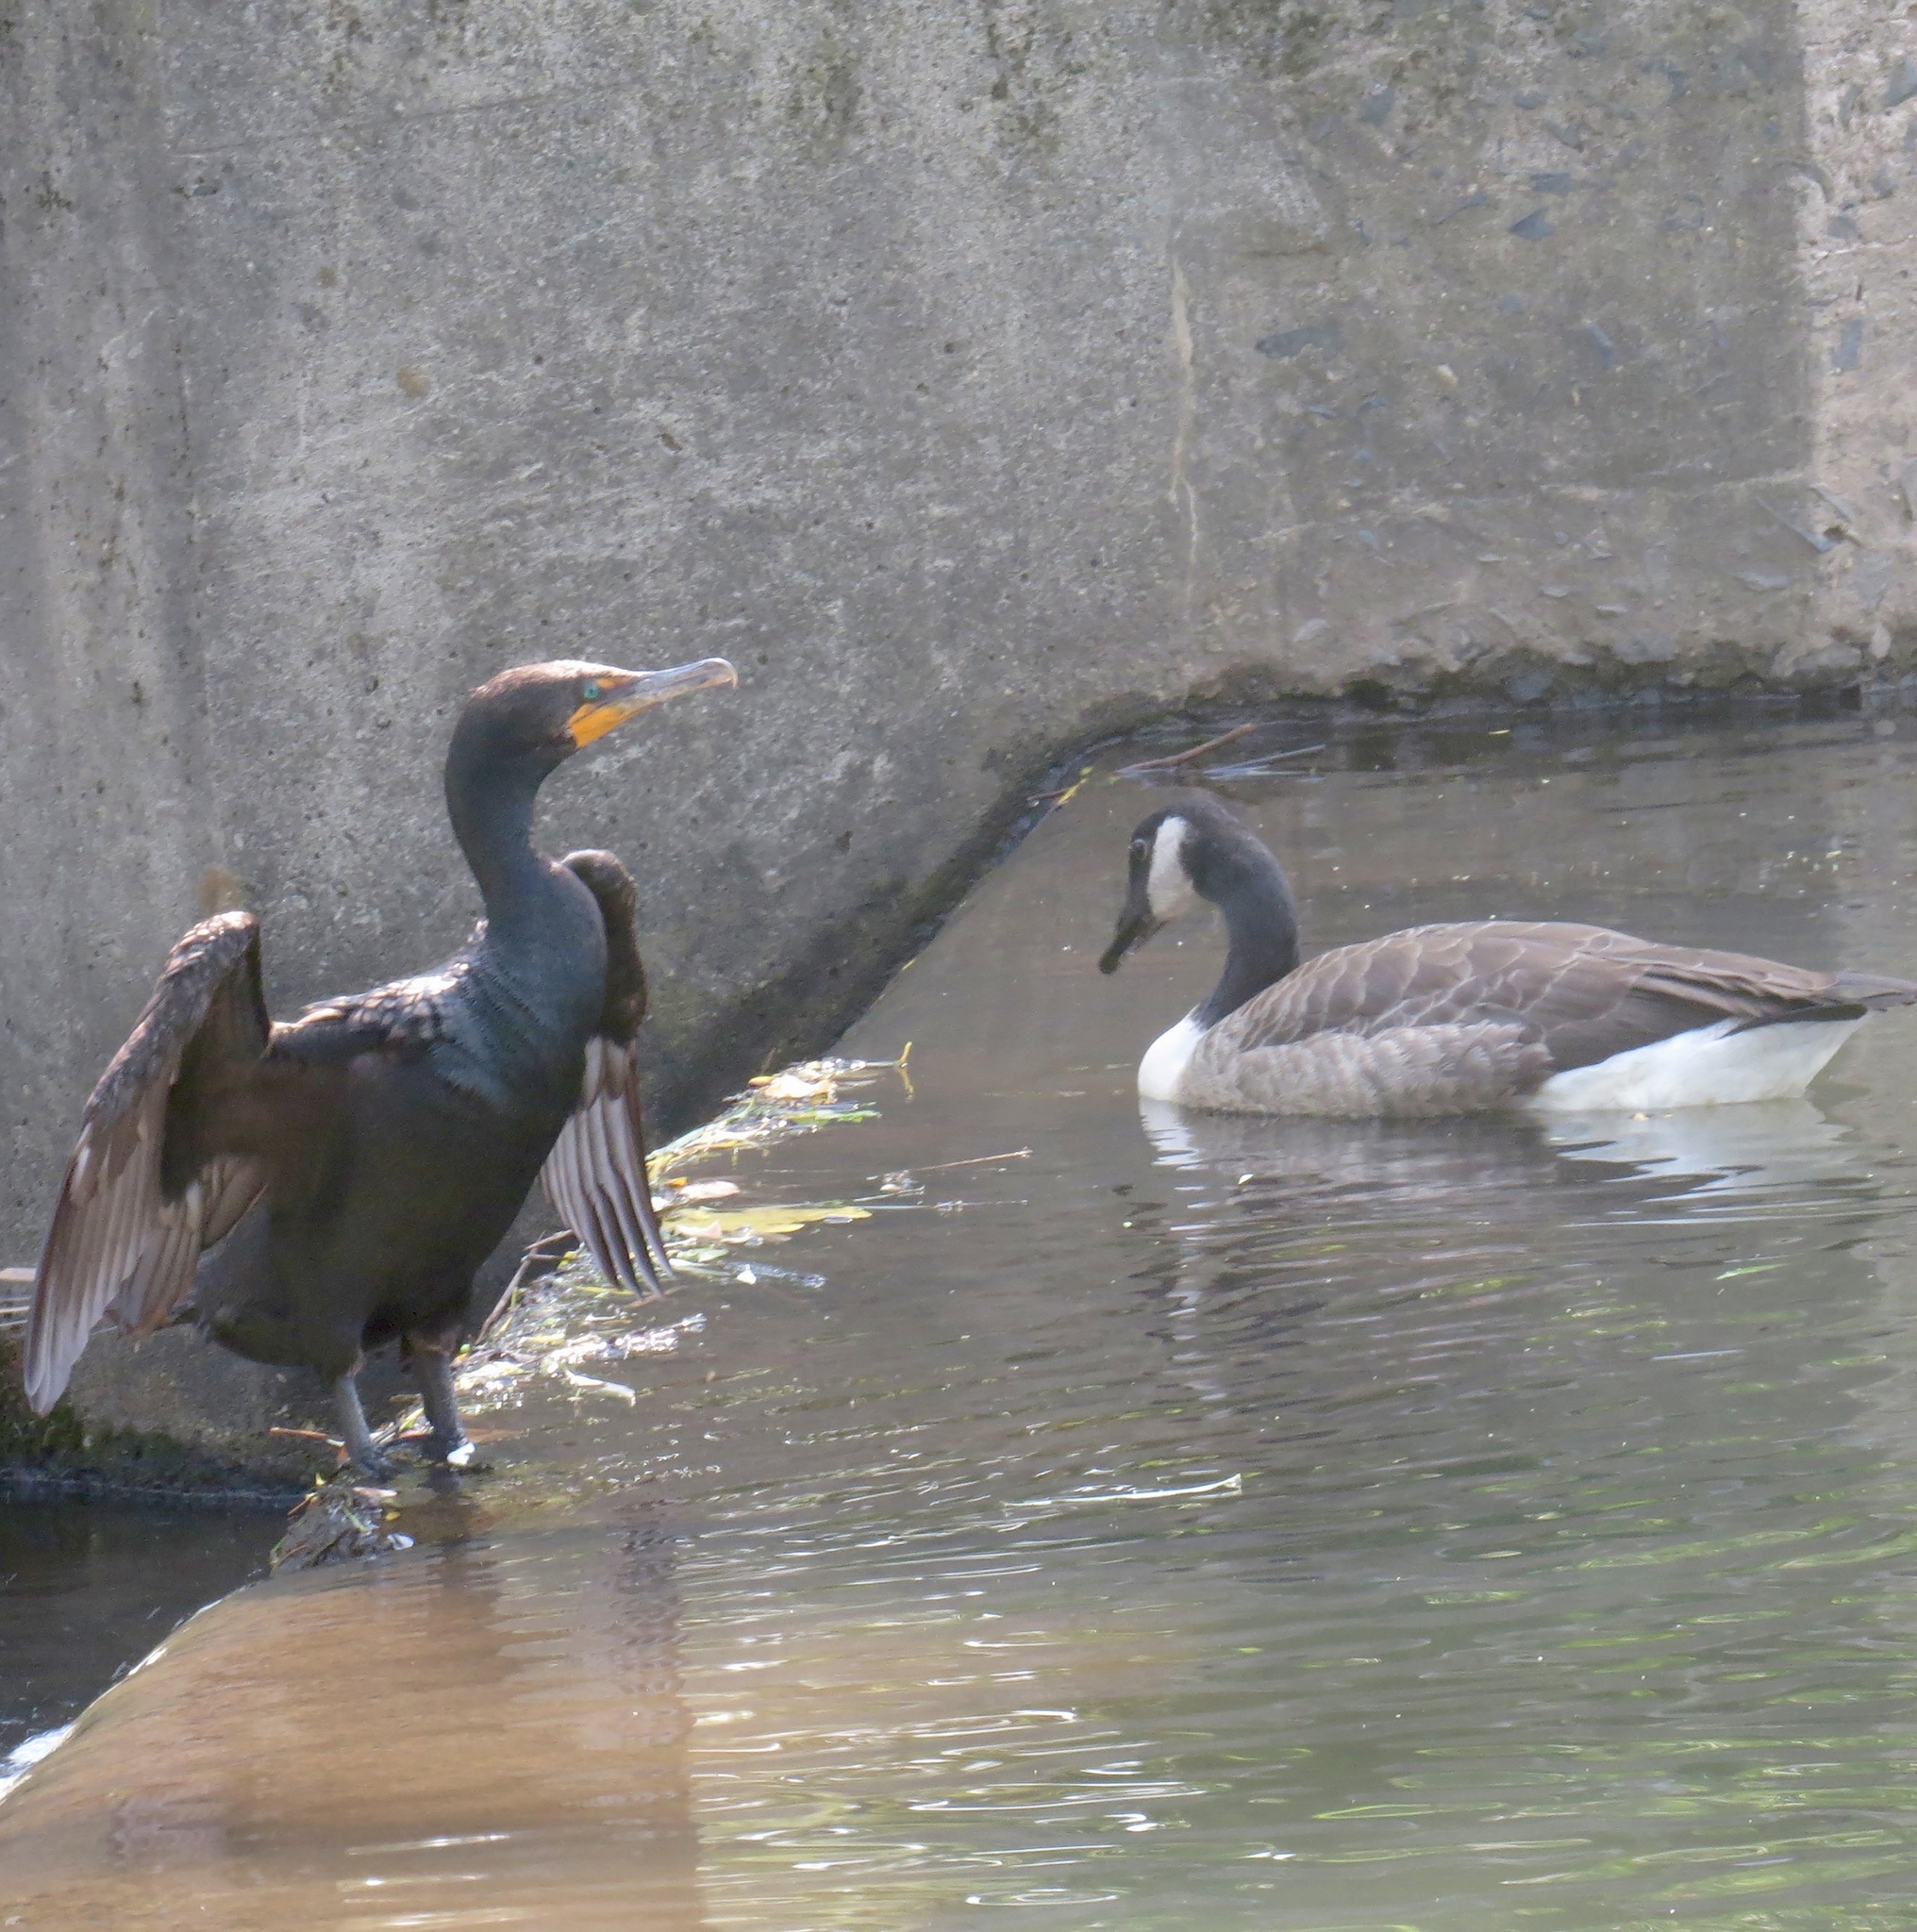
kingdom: Animalia
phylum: Chordata
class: Aves
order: Suliformes
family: Phalacrocoracidae
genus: Phalacrocorax
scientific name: Phalacrocorax auritus
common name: Double-crested cormorant
